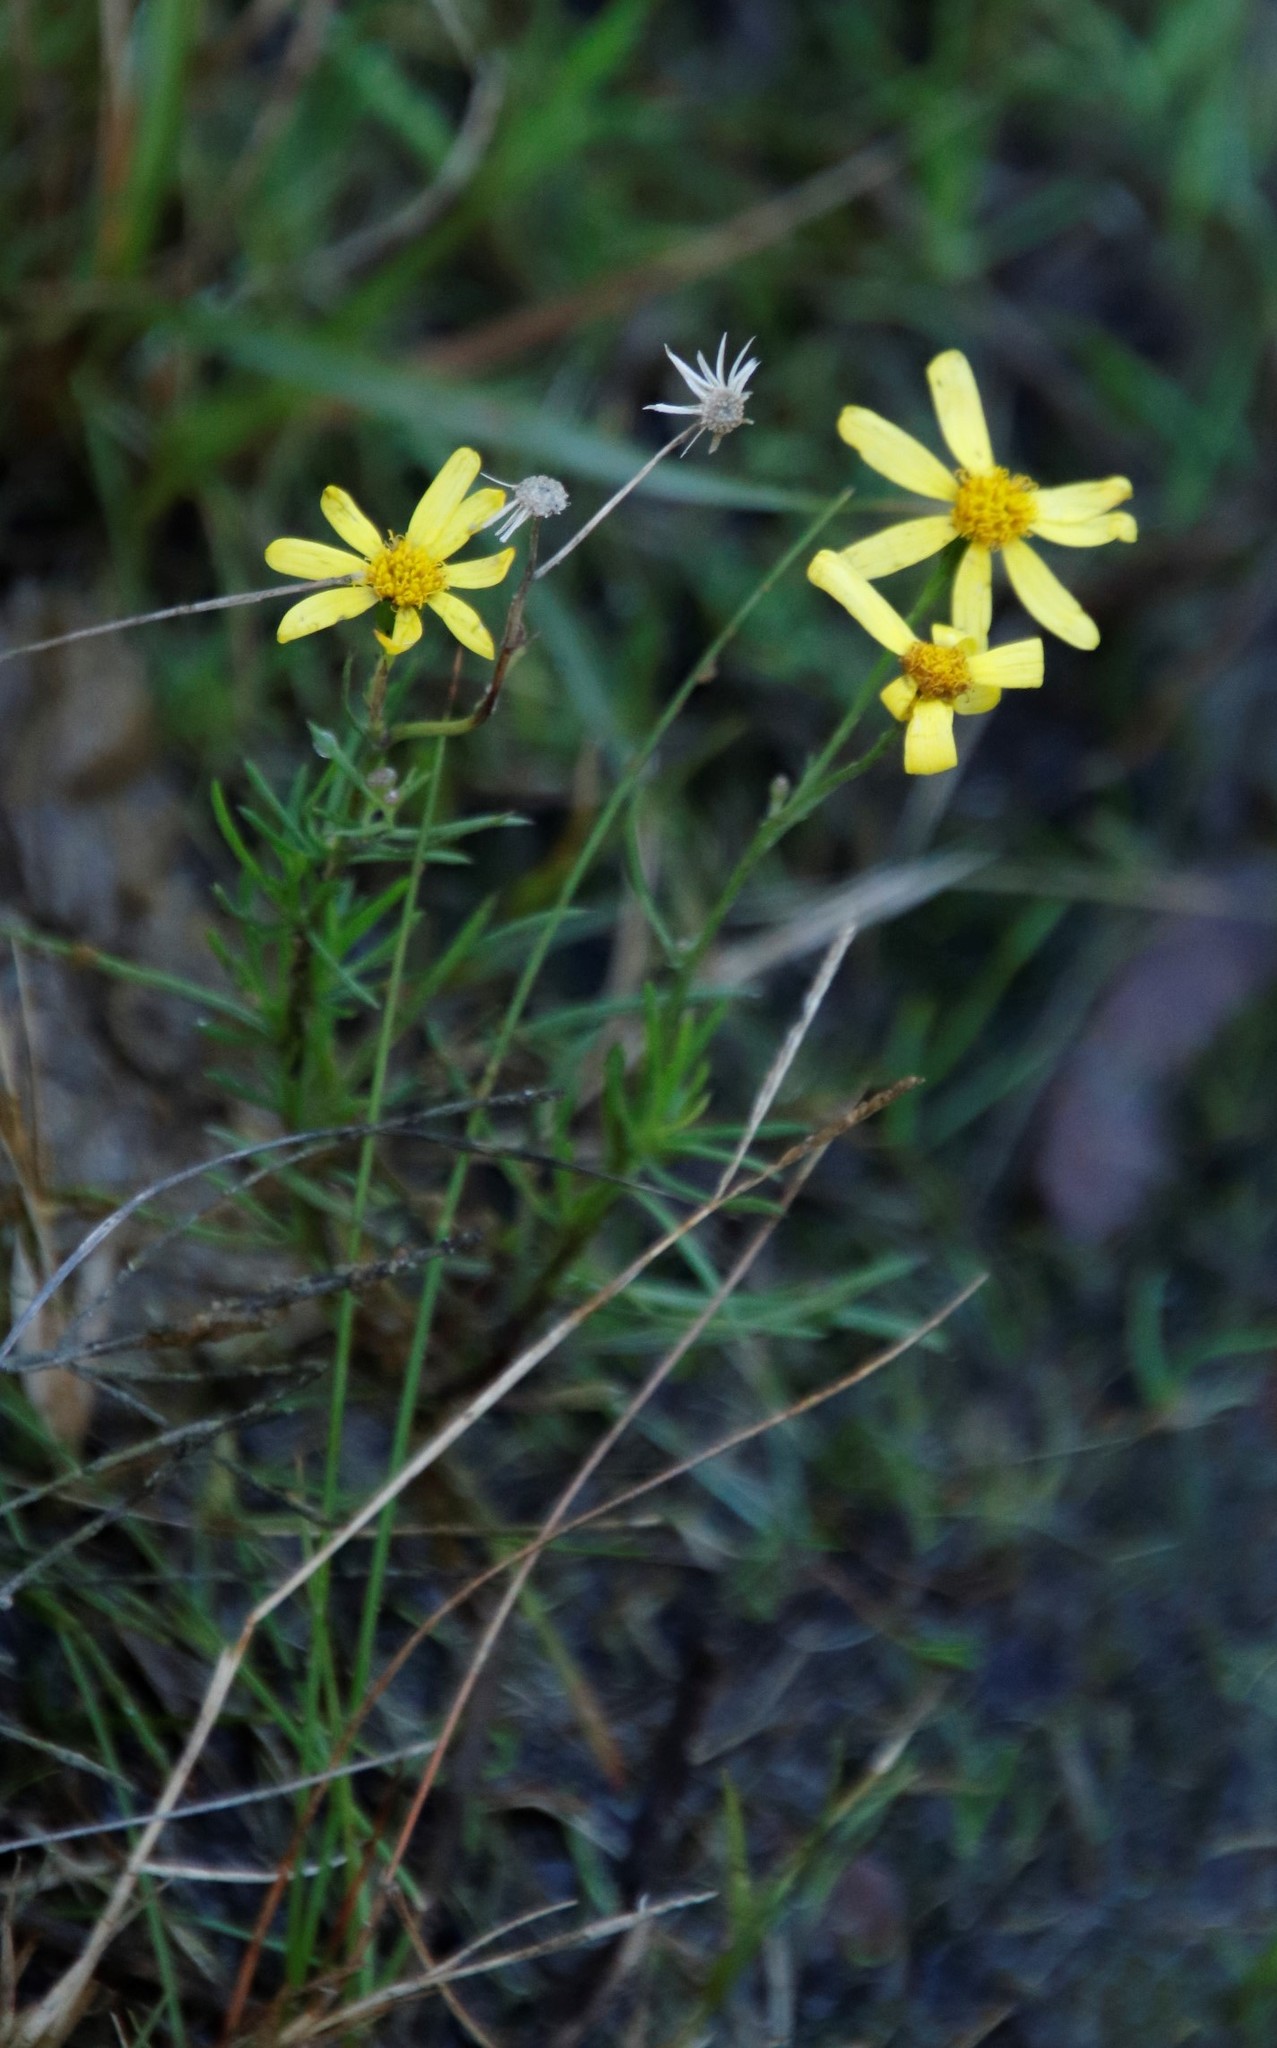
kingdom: Plantae
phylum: Tracheophyta
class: Magnoliopsida
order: Asterales
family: Asteraceae
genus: Senecio
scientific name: Senecio burchellii
